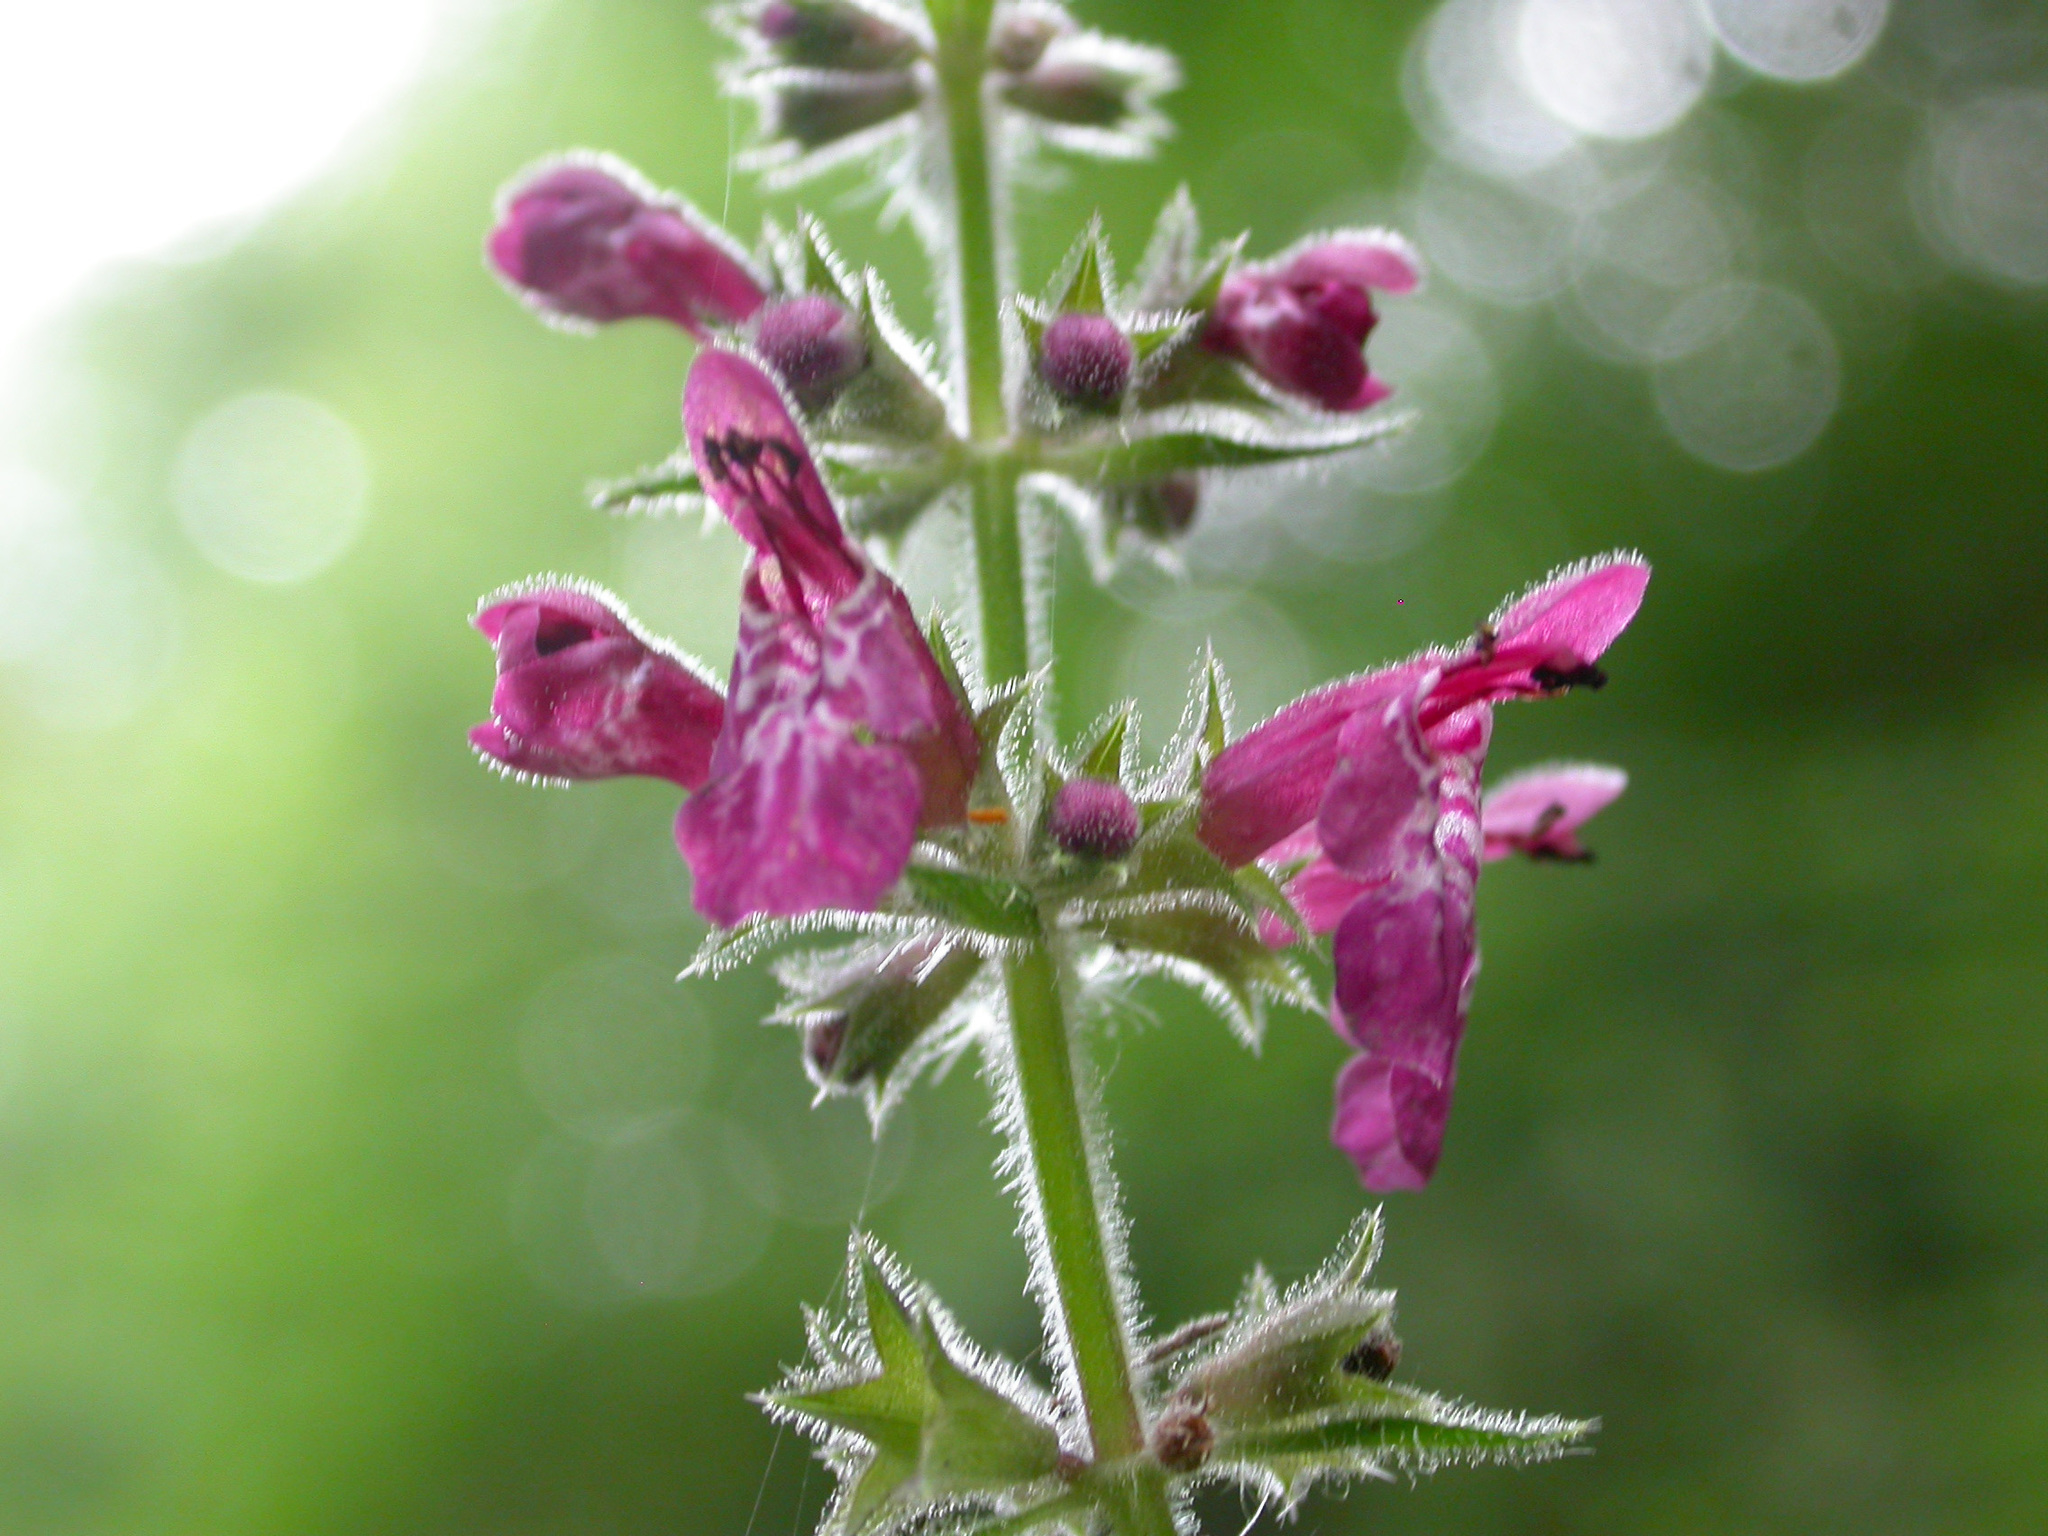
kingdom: Plantae
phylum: Tracheophyta
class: Magnoliopsida
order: Lamiales
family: Lamiaceae
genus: Stachys
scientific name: Stachys sylvatica
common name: Hedge woundwort
